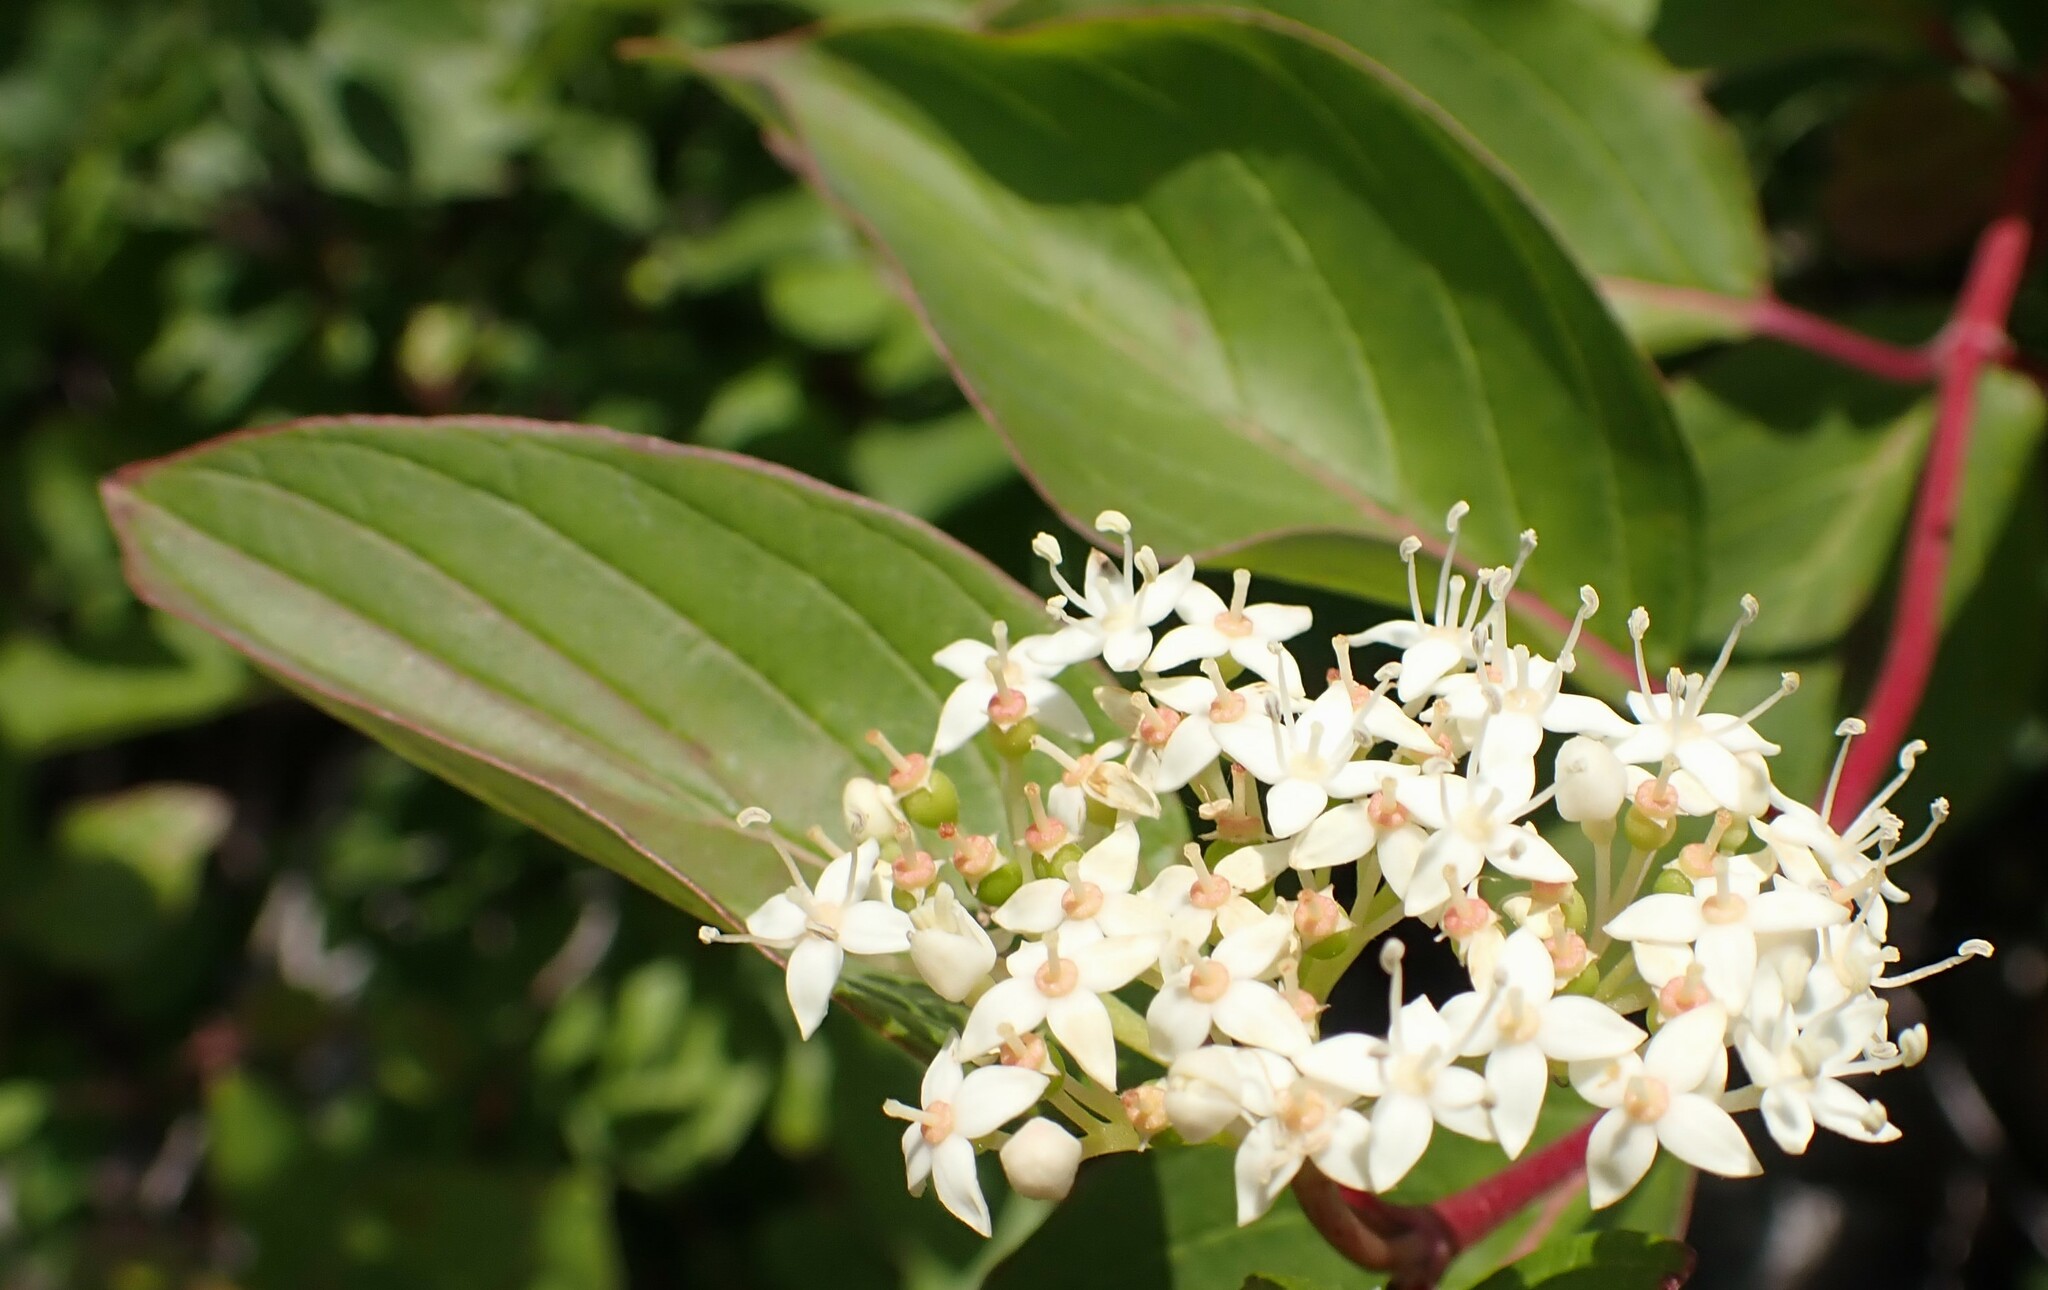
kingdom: Plantae
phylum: Tracheophyta
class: Magnoliopsida
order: Cornales
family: Cornaceae
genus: Cornus
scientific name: Cornus sericea
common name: Red-osier dogwood
